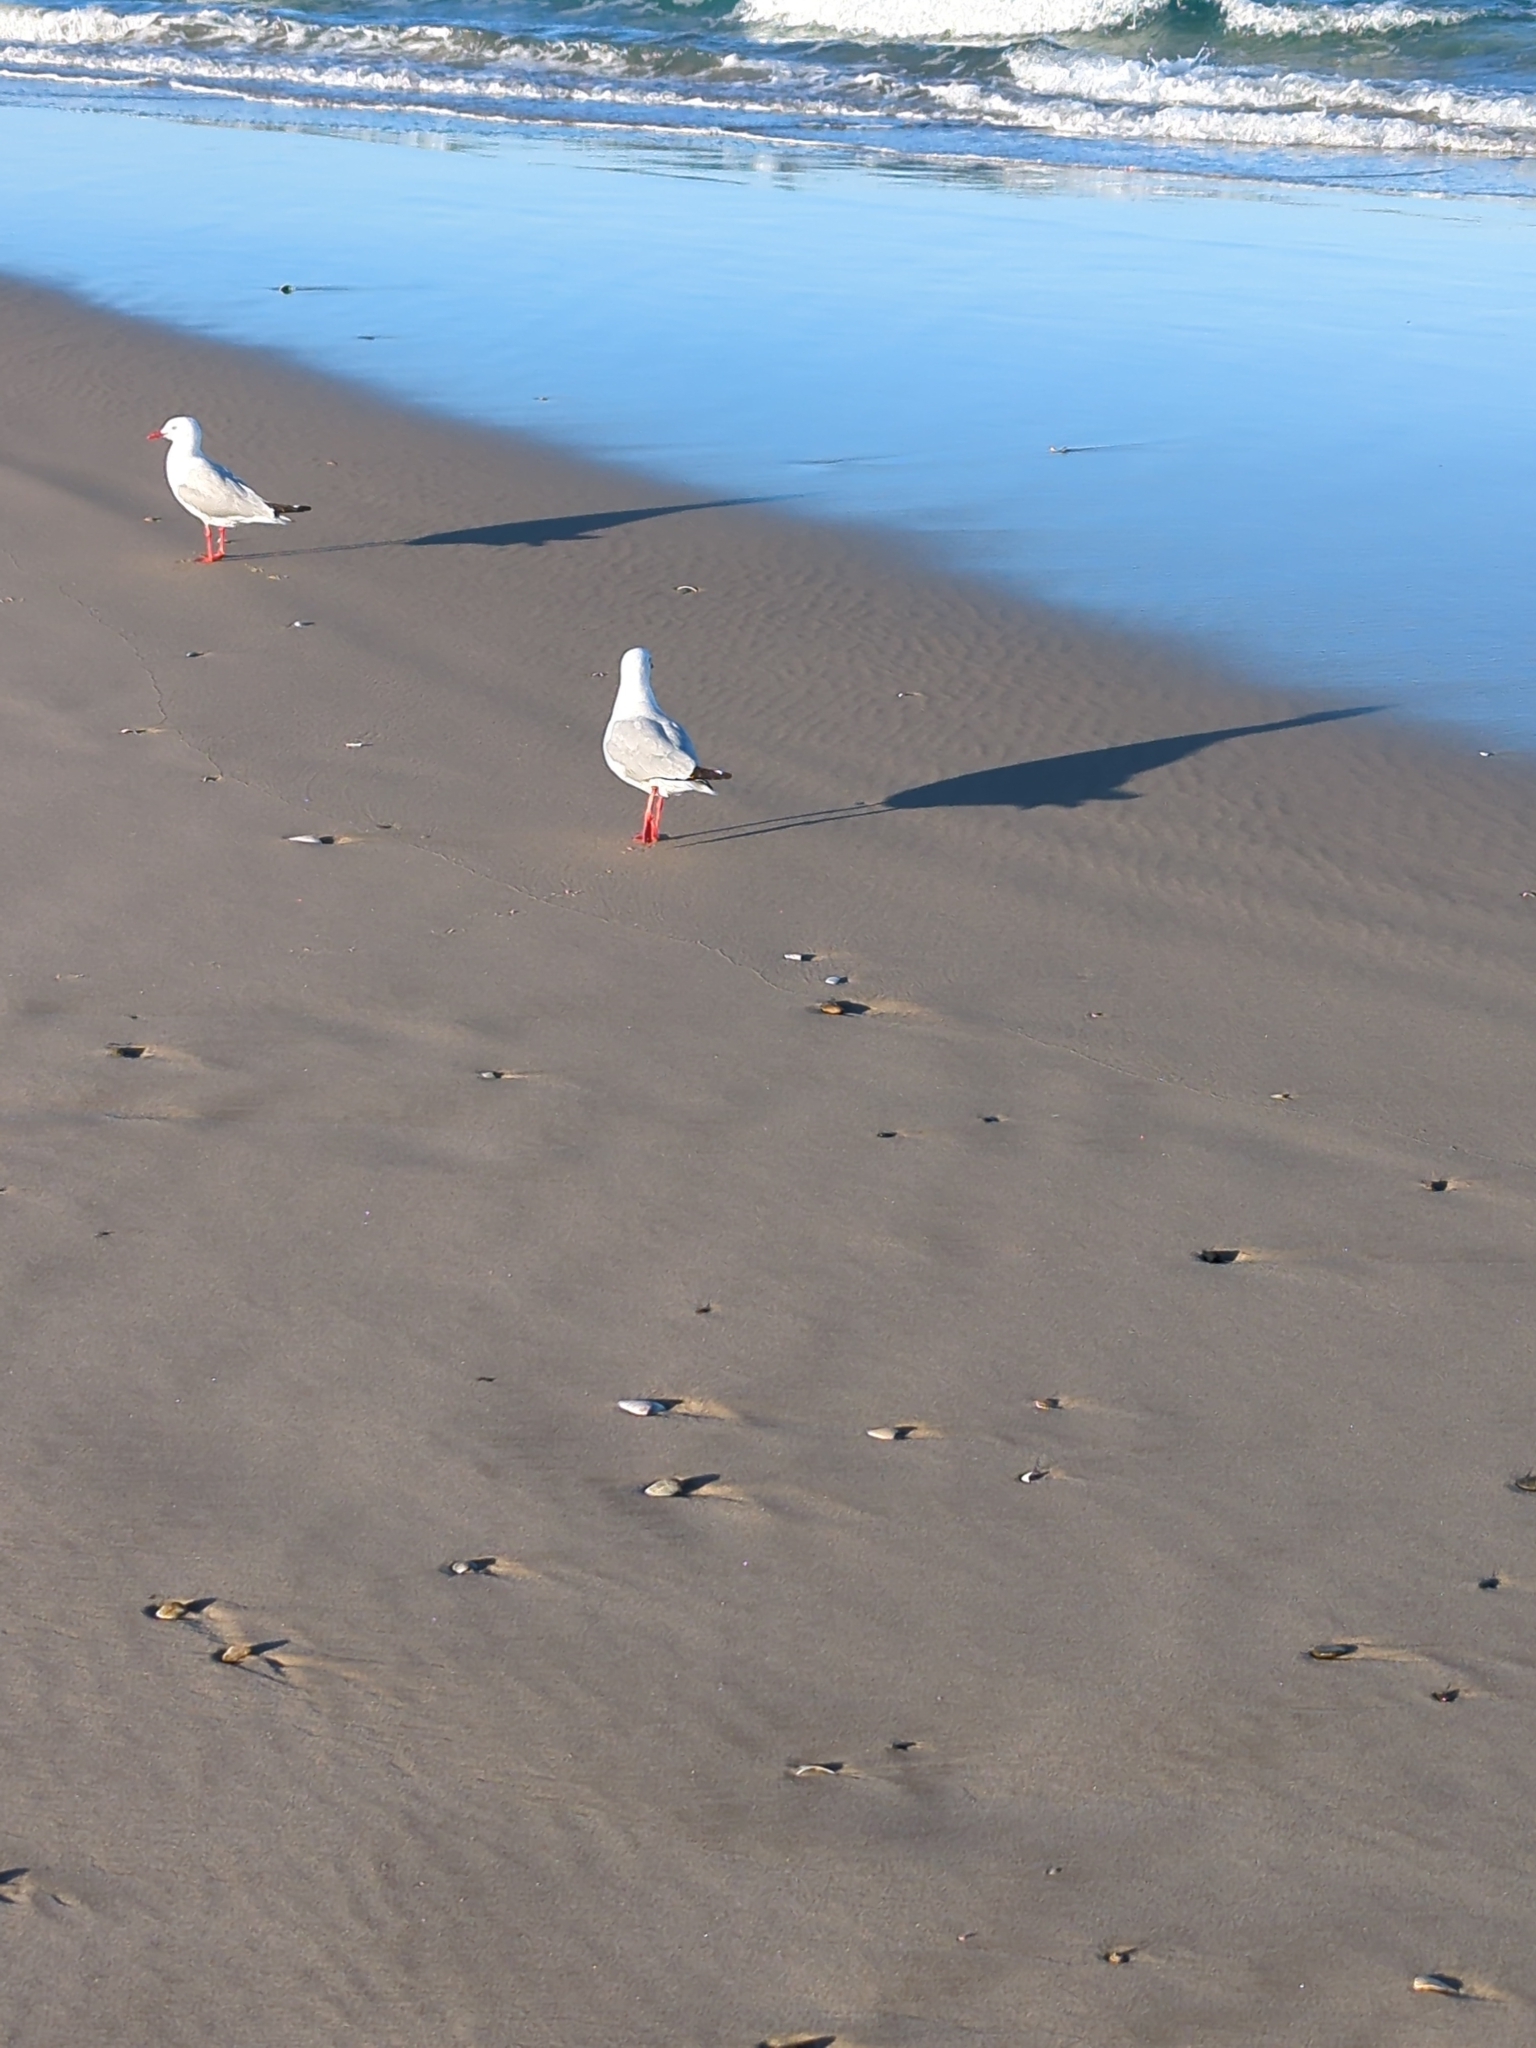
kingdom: Animalia
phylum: Chordata
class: Aves
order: Charadriiformes
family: Laridae
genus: Chroicocephalus
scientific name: Chroicocephalus novaehollandiae
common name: Silver gull
